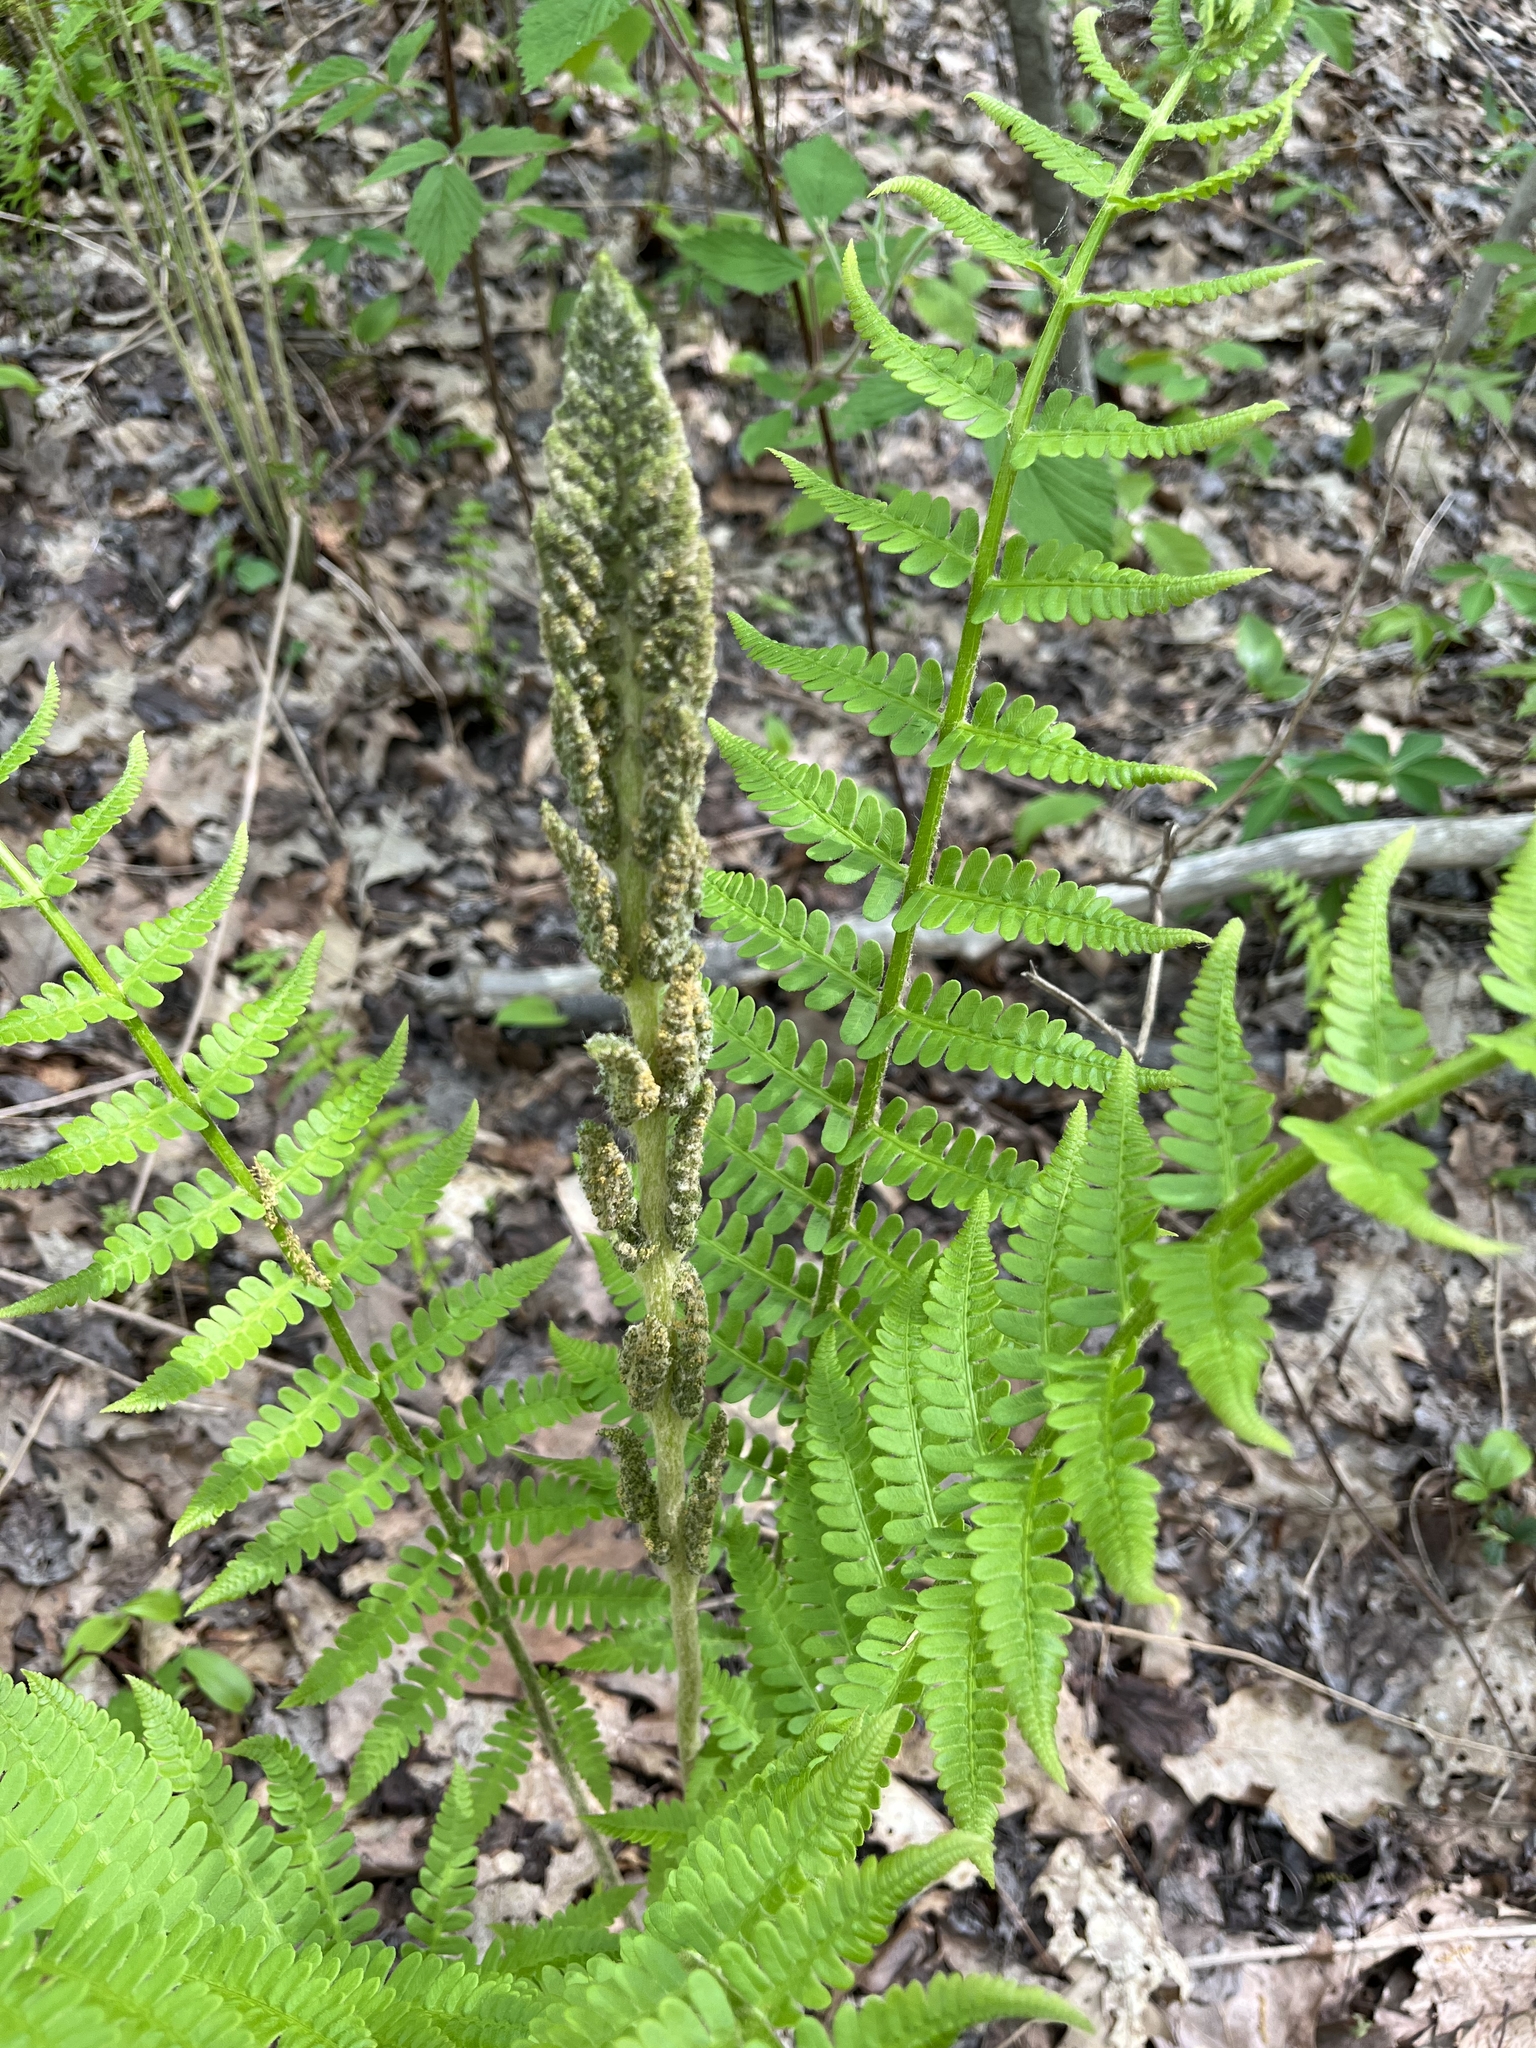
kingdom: Plantae
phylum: Tracheophyta
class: Polypodiopsida
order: Osmundales
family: Osmundaceae
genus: Osmundastrum
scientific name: Osmundastrum cinnamomeum
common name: Cinnamon fern
